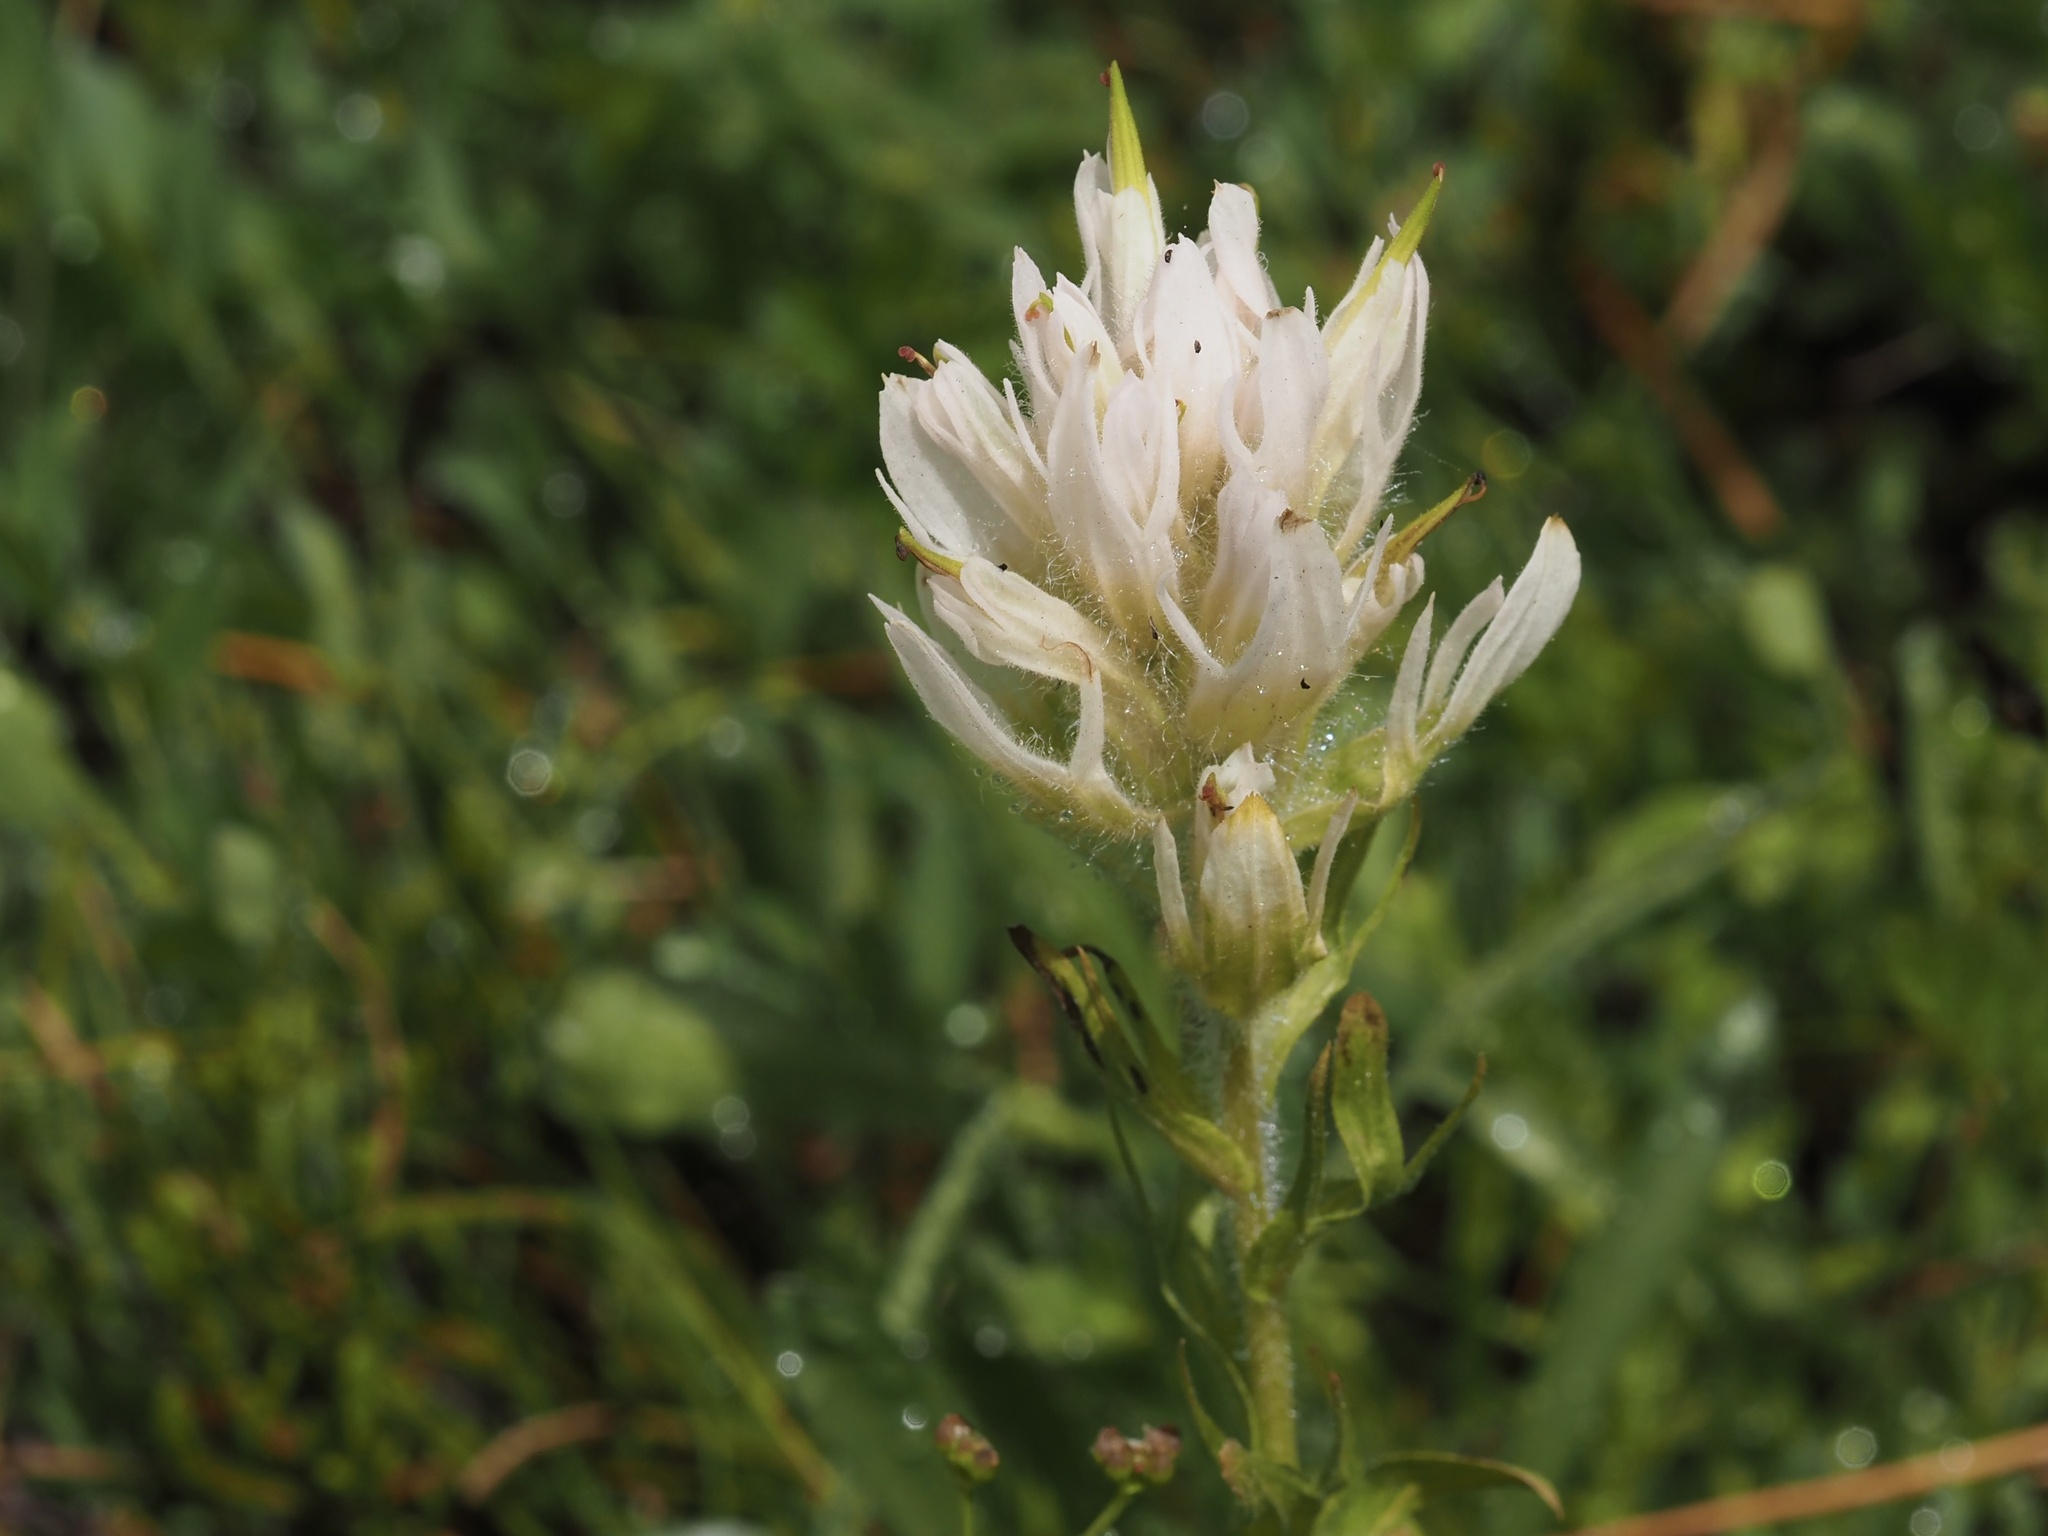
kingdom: Plantae
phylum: Tracheophyta
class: Magnoliopsida
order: Lamiales
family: Orobanchaceae
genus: Castilleja
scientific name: Castilleja parviflora
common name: Mountain paintbrush
